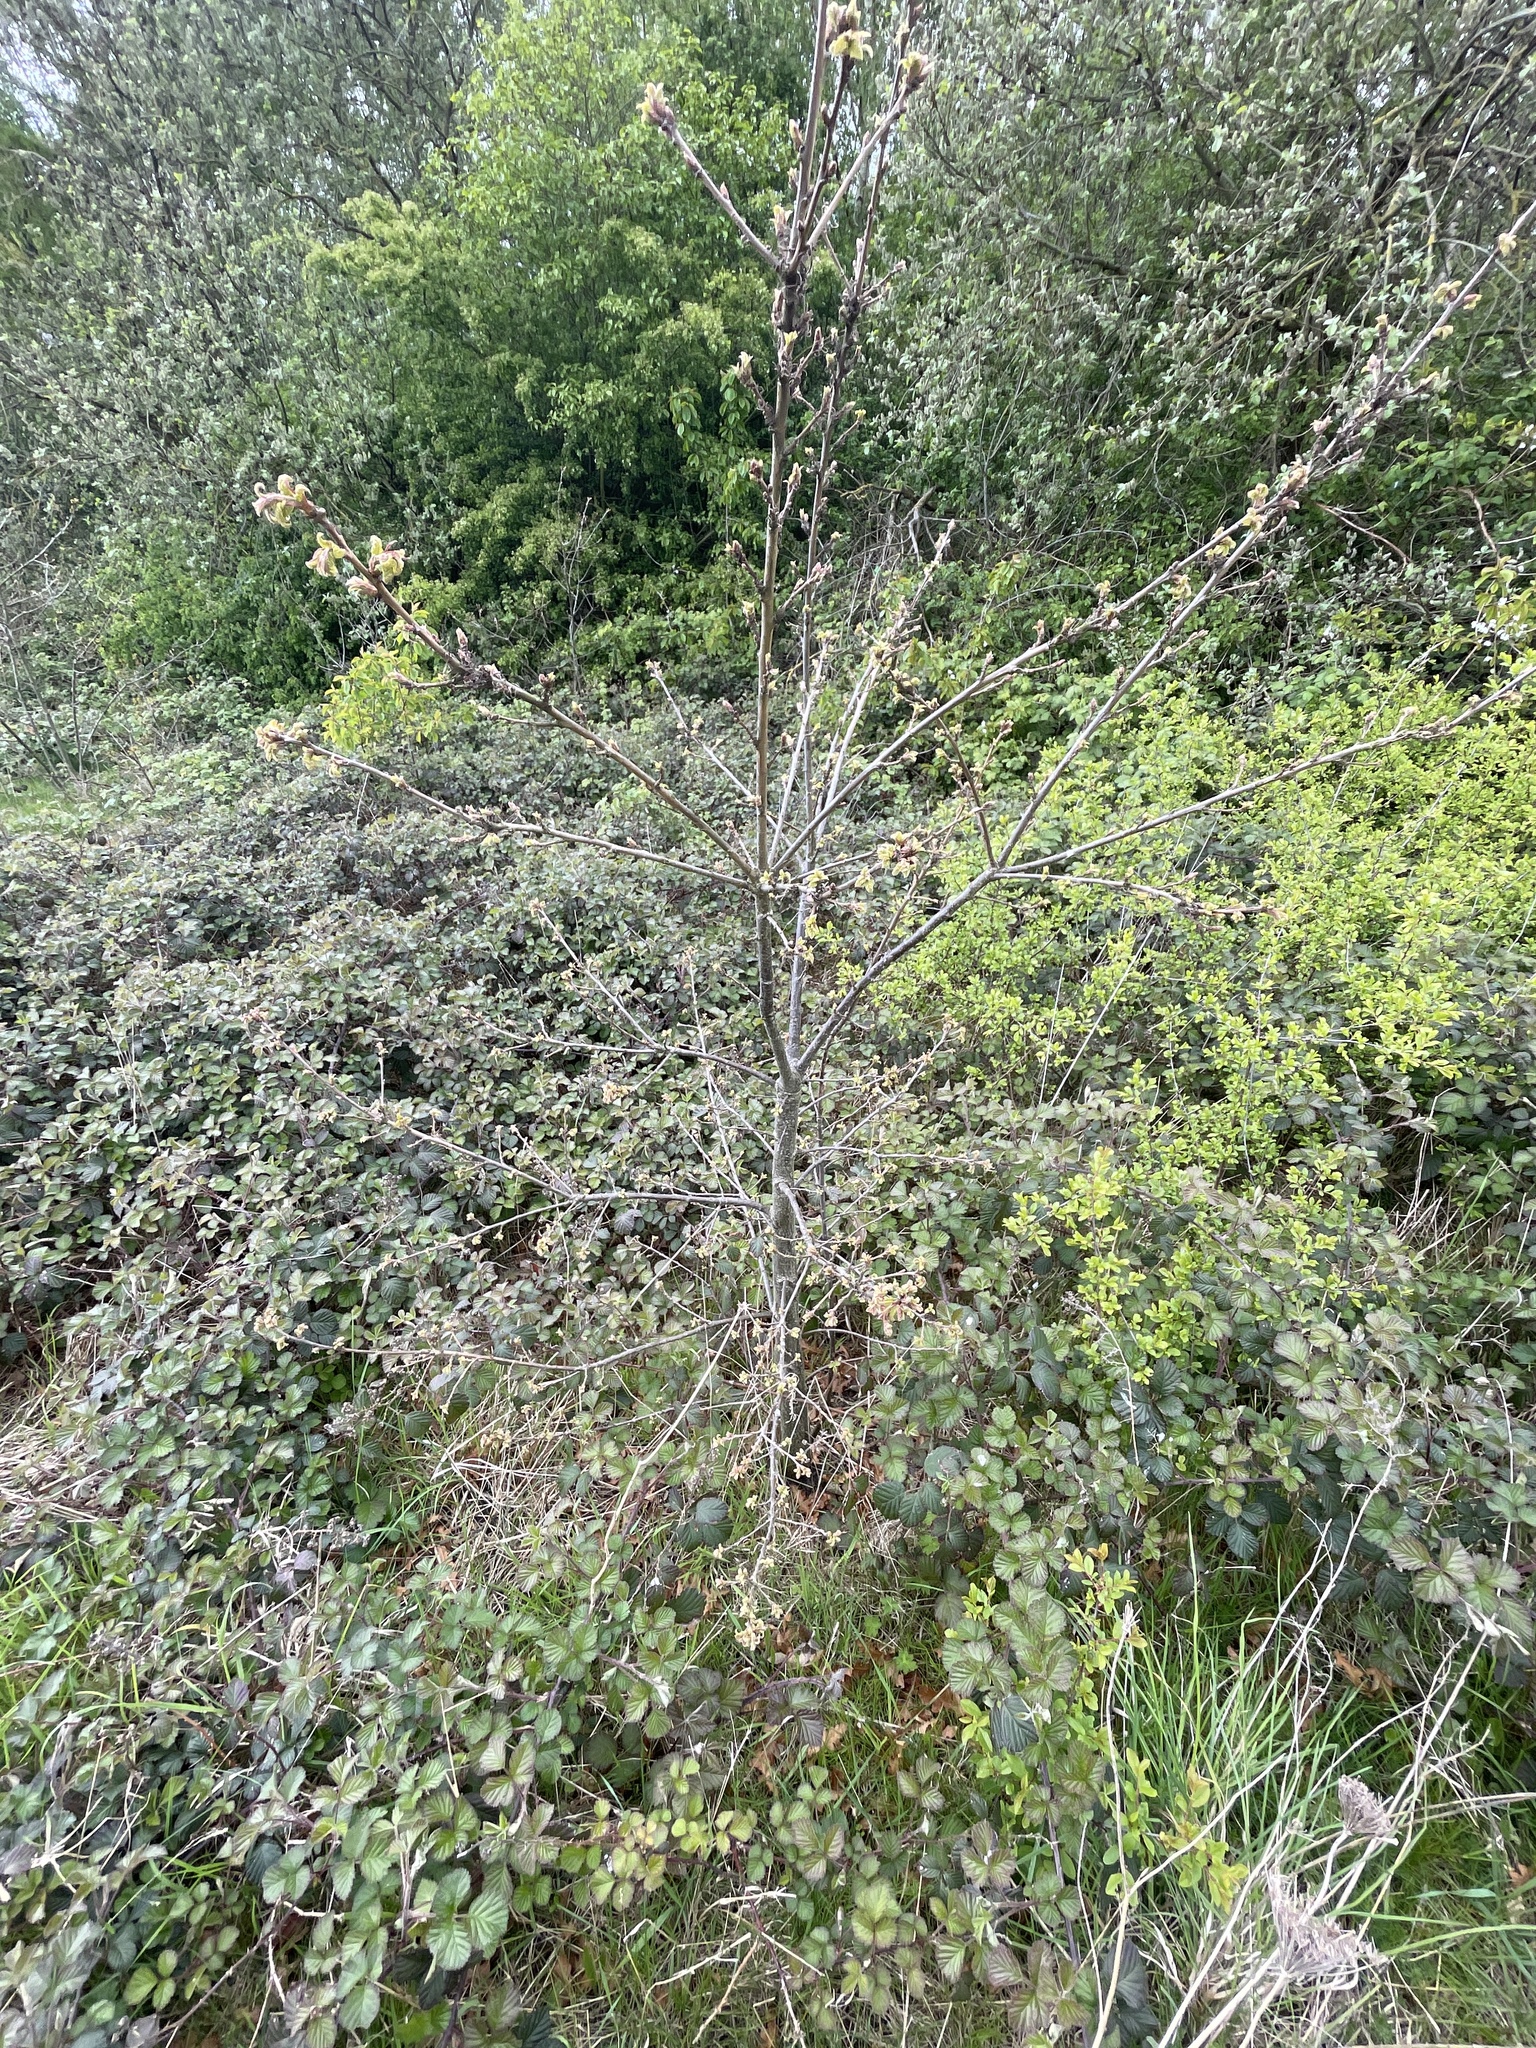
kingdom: Plantae
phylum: Tracheophyta
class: Magnoliopsida
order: Fagales
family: Fagaceae
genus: Quercus
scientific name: Quercus cerris
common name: Turkey oak
